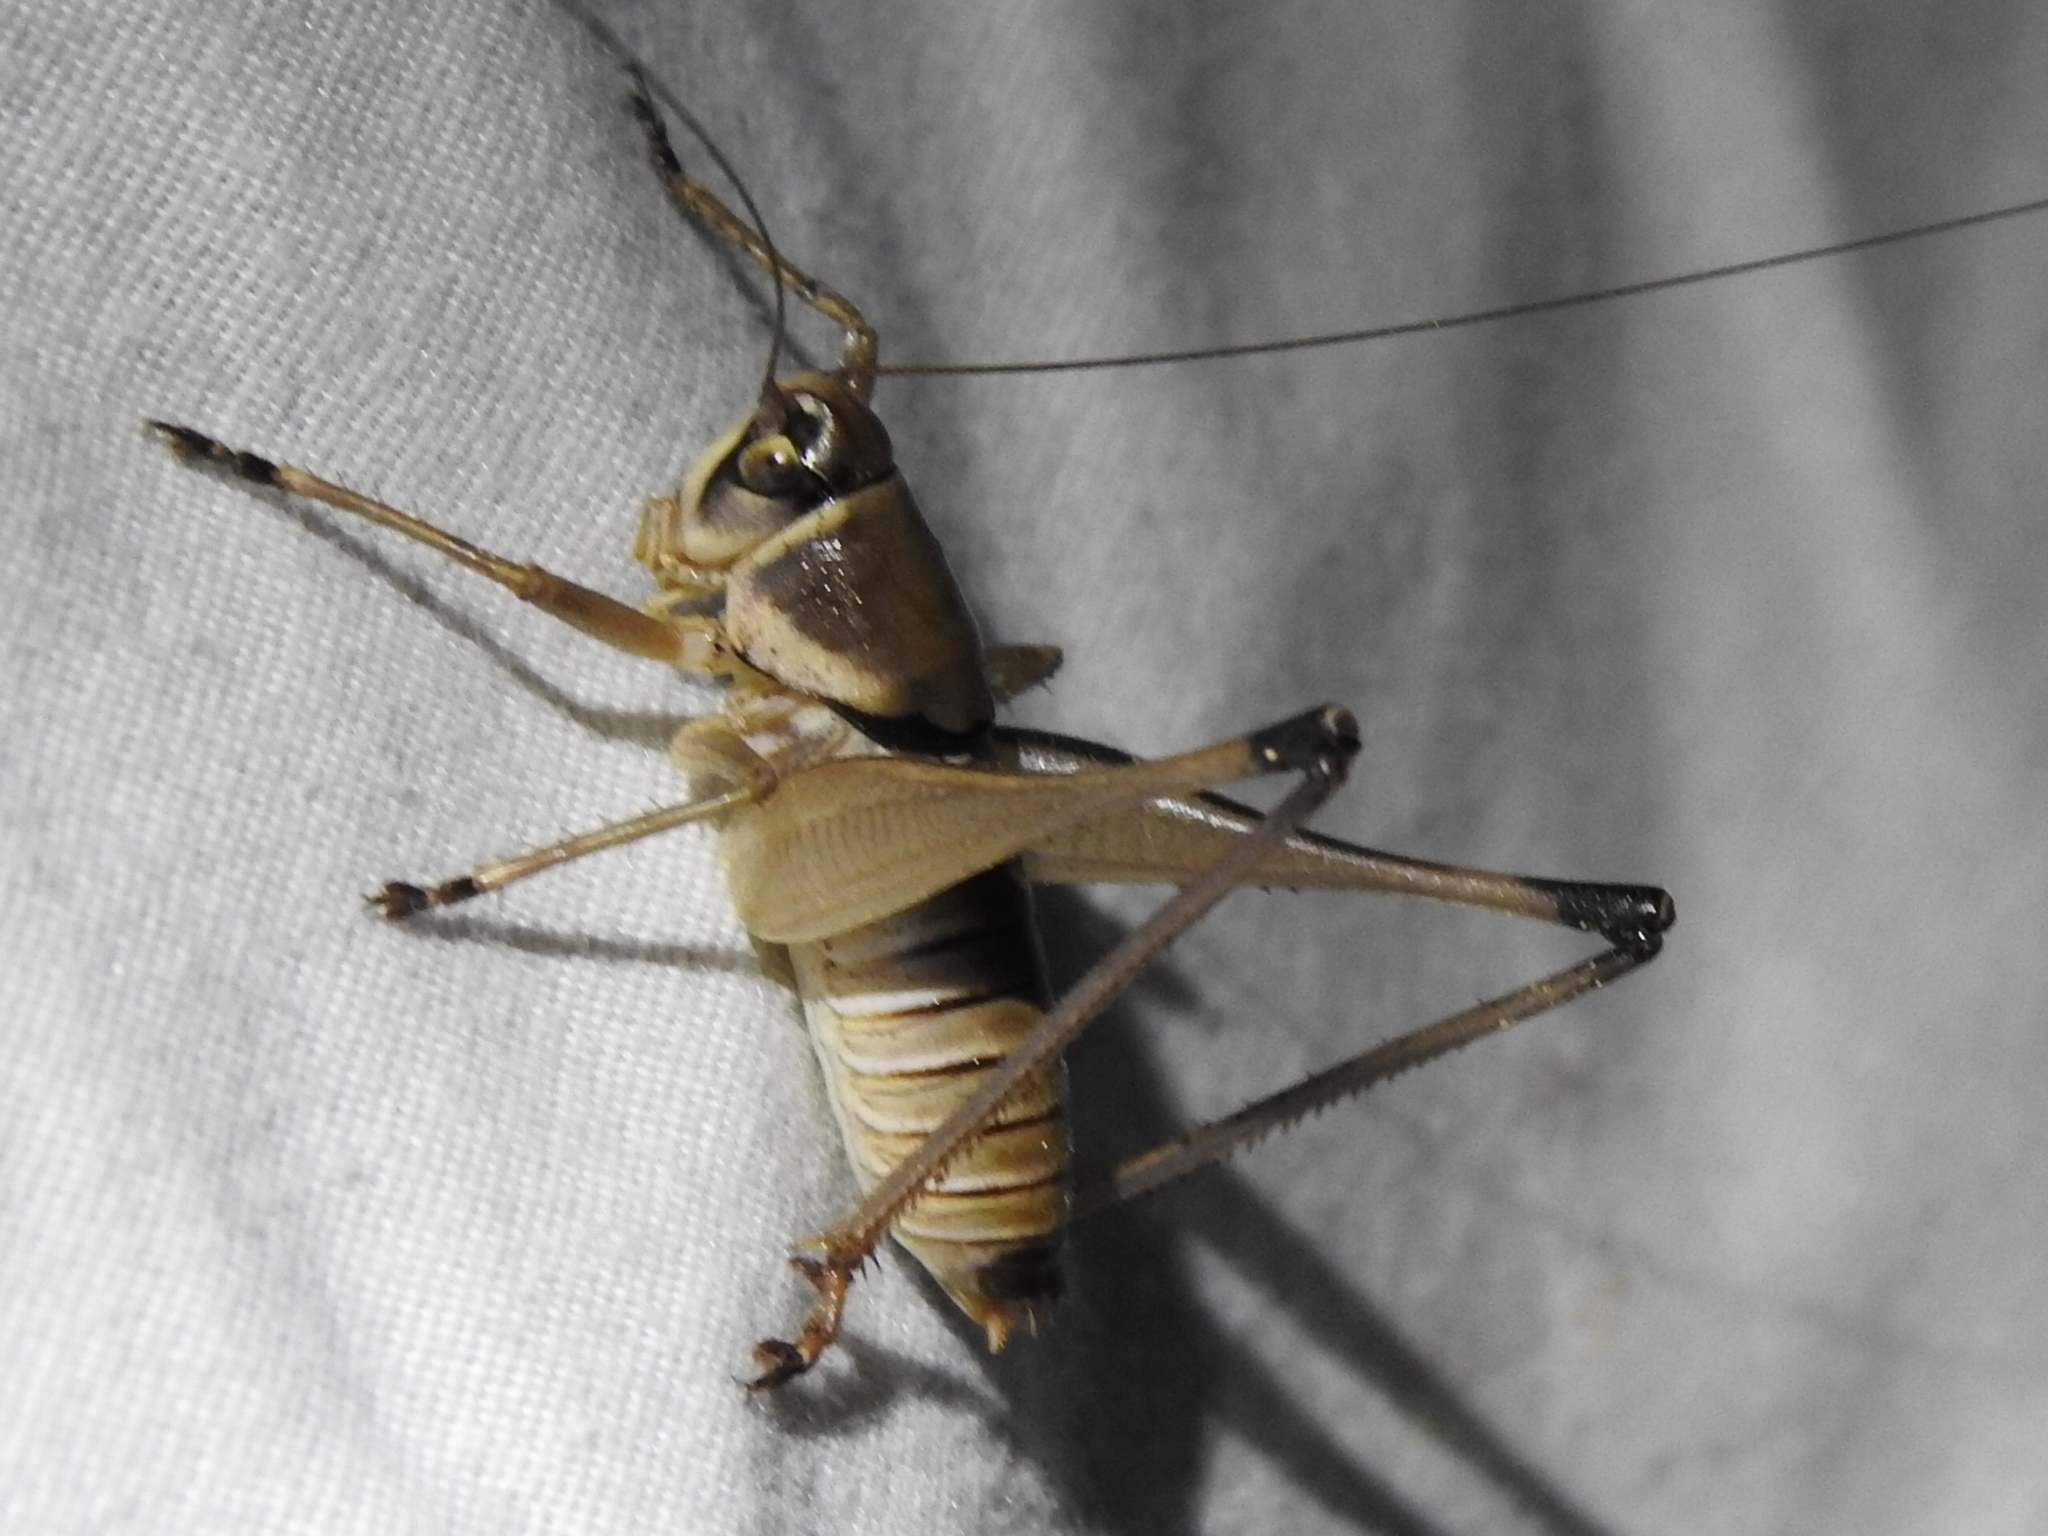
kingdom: Animalia
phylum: Arthropoda
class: Insecta
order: Orthoptera
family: Tettigoniidae
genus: Pediodectes
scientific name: Pediodectes bruneri
